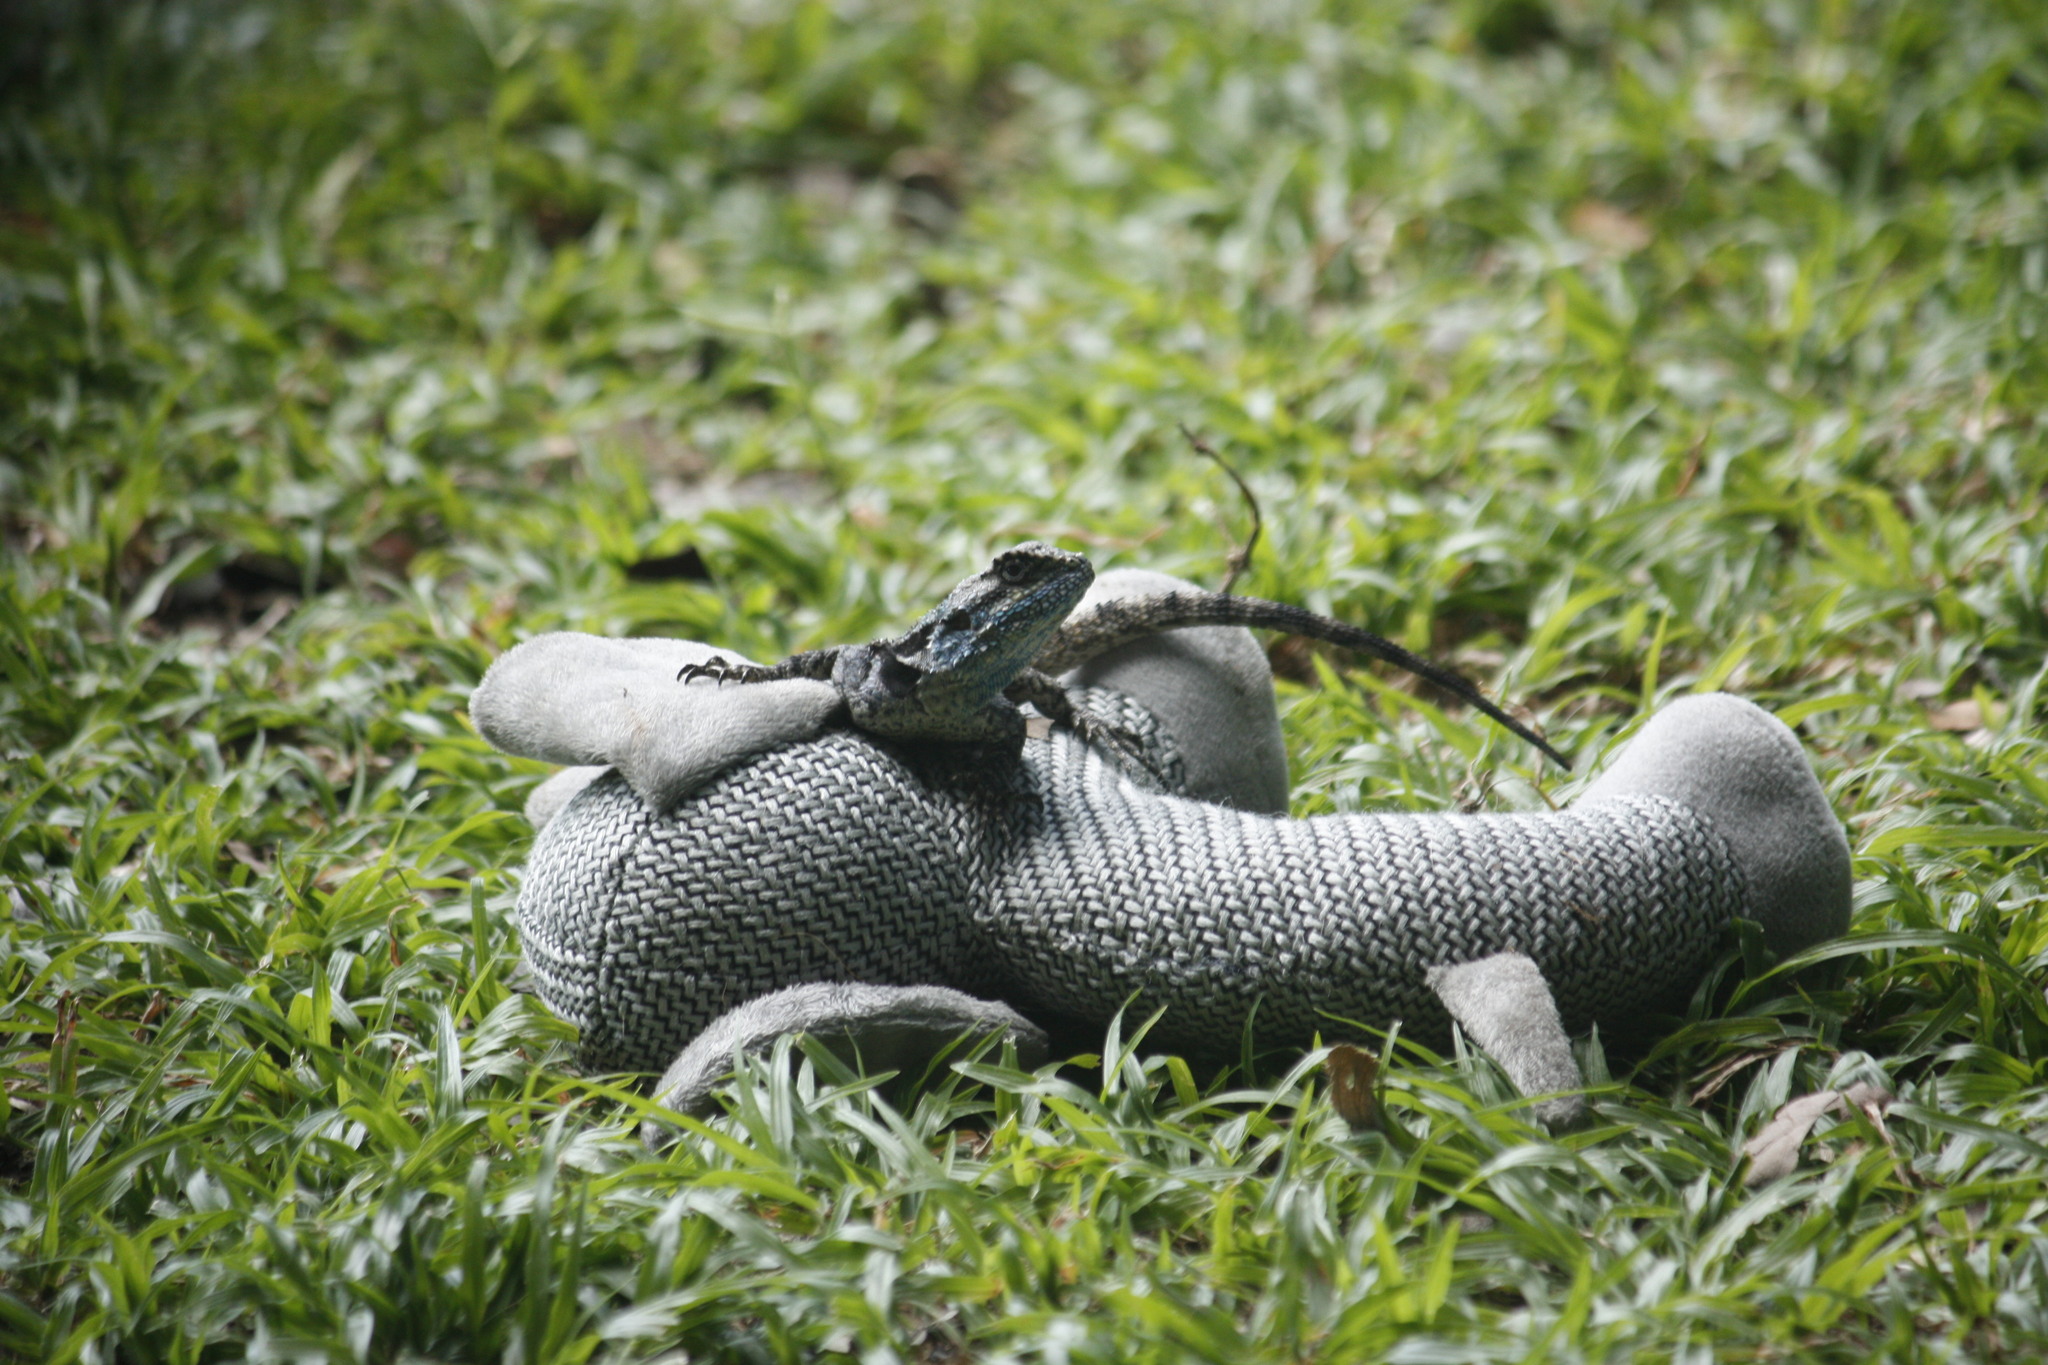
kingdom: Animalia
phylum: Chordata
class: Squamata
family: Agamidae
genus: Acanthocercus
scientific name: Acanthocercus atricollis
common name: Southern tree agama
